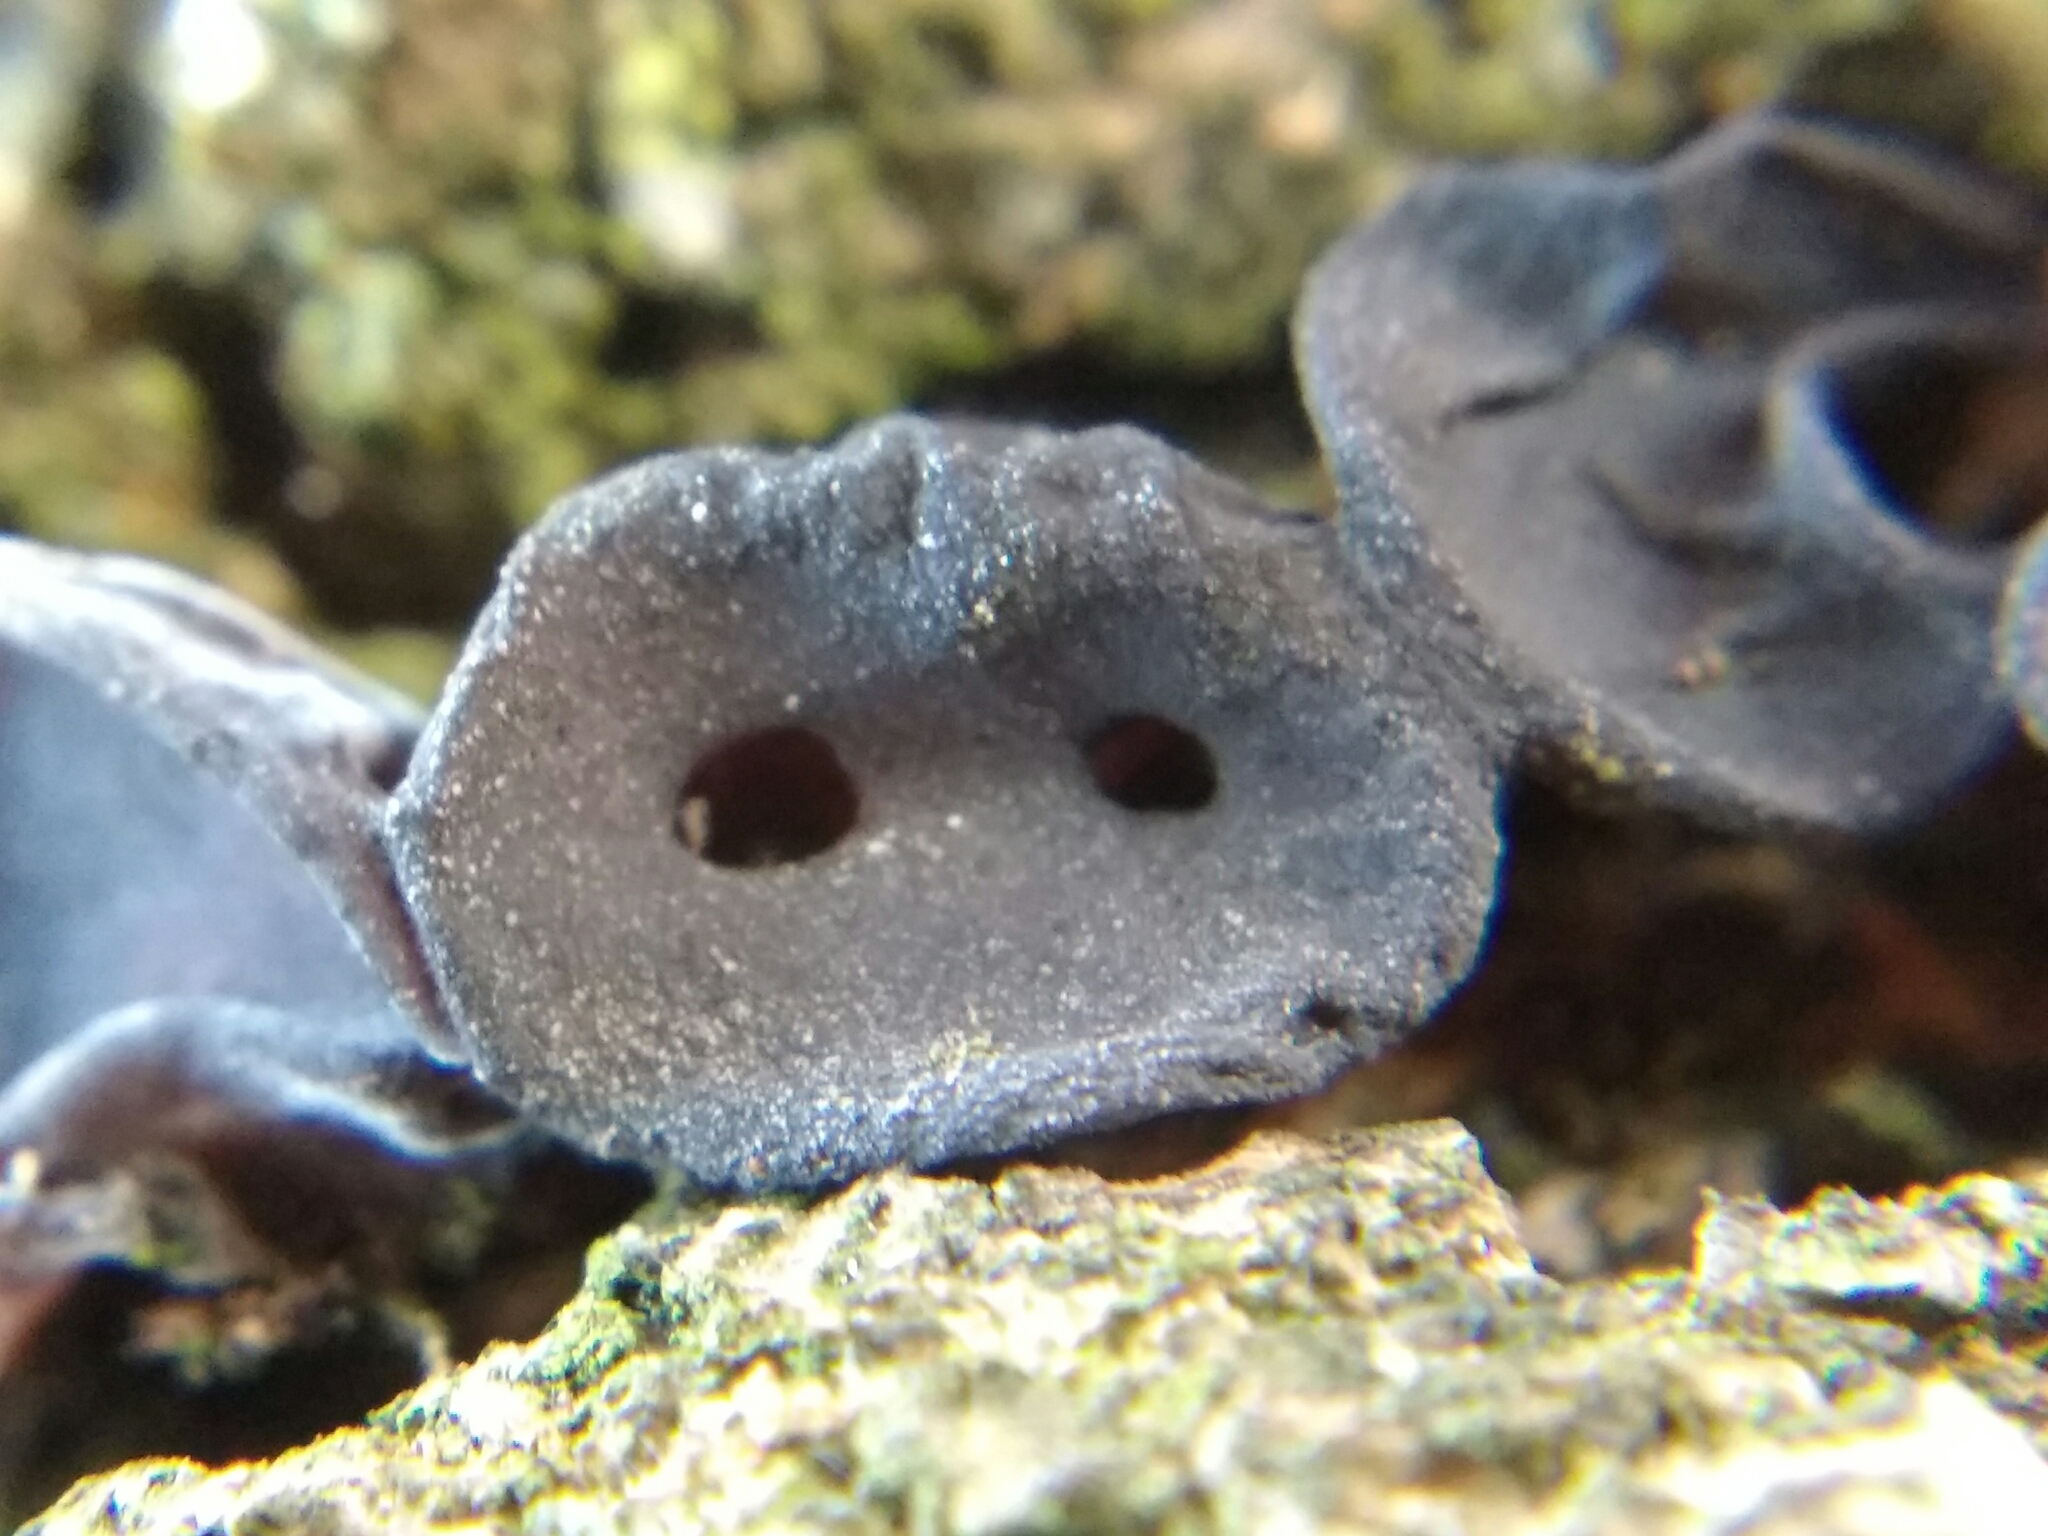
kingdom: Fungi
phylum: Basidiomycota
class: Agaricomycetes
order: Auriculariales
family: Auriculariaceae
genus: Auricularia
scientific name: Auricularia auricula-judae
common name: Jelly ear
